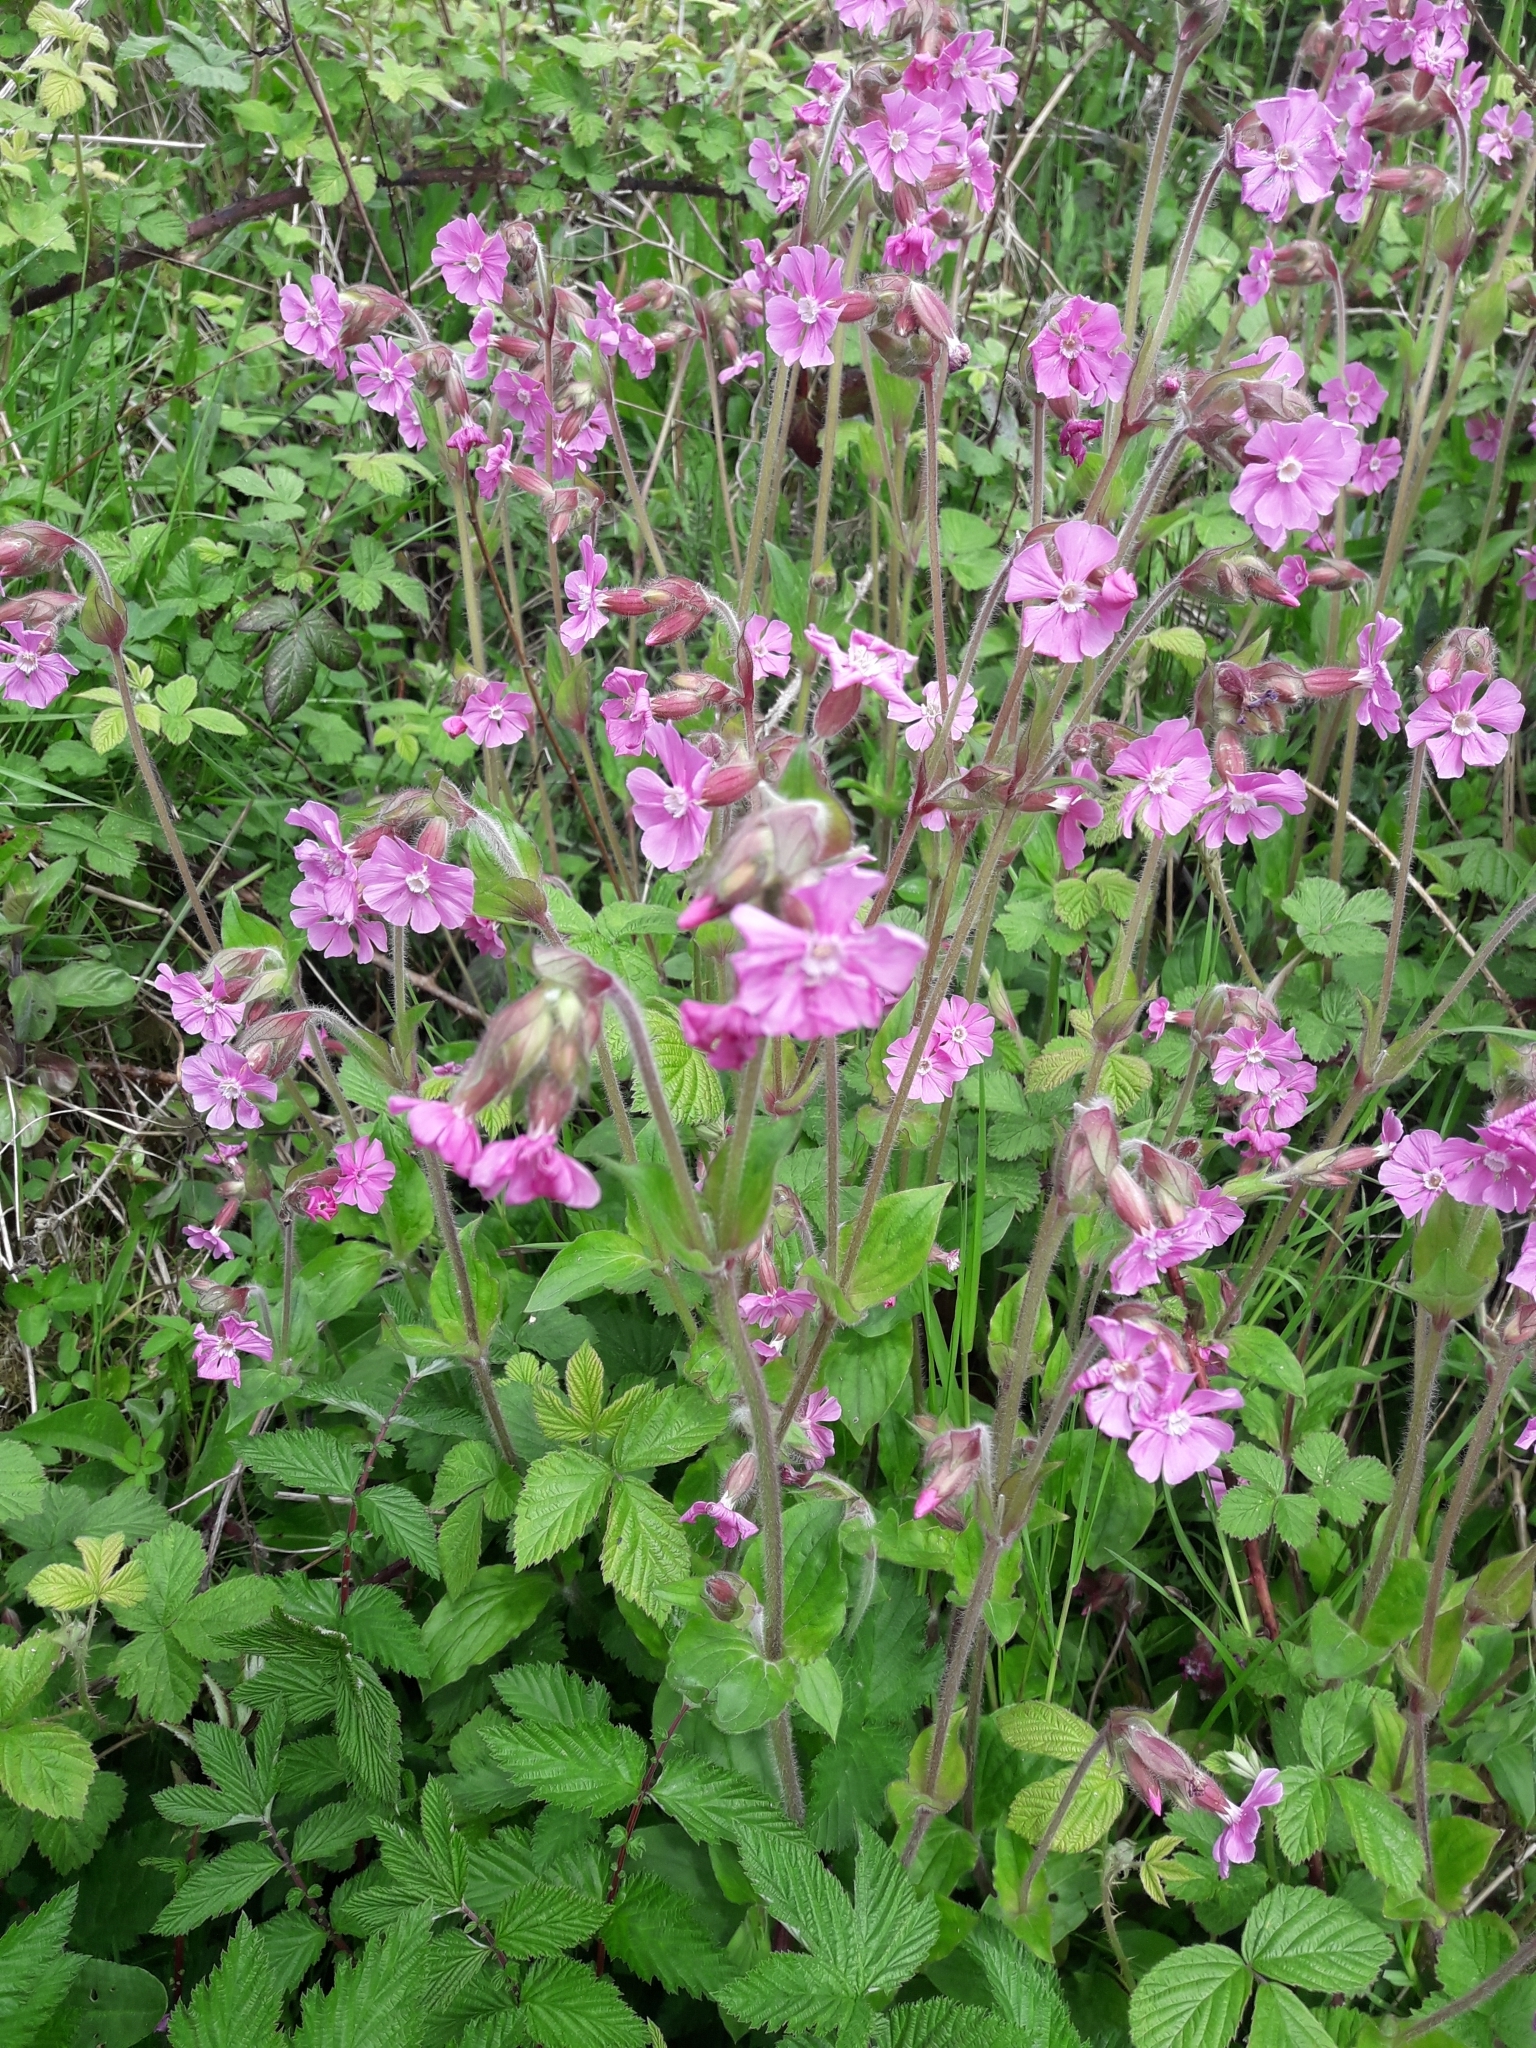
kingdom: Plantae
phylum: Tracheophyta
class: Magnoliopsida
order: Caryophyllales
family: Caryophyllaceae
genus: Silene
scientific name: Silene dioica
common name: Red campion
